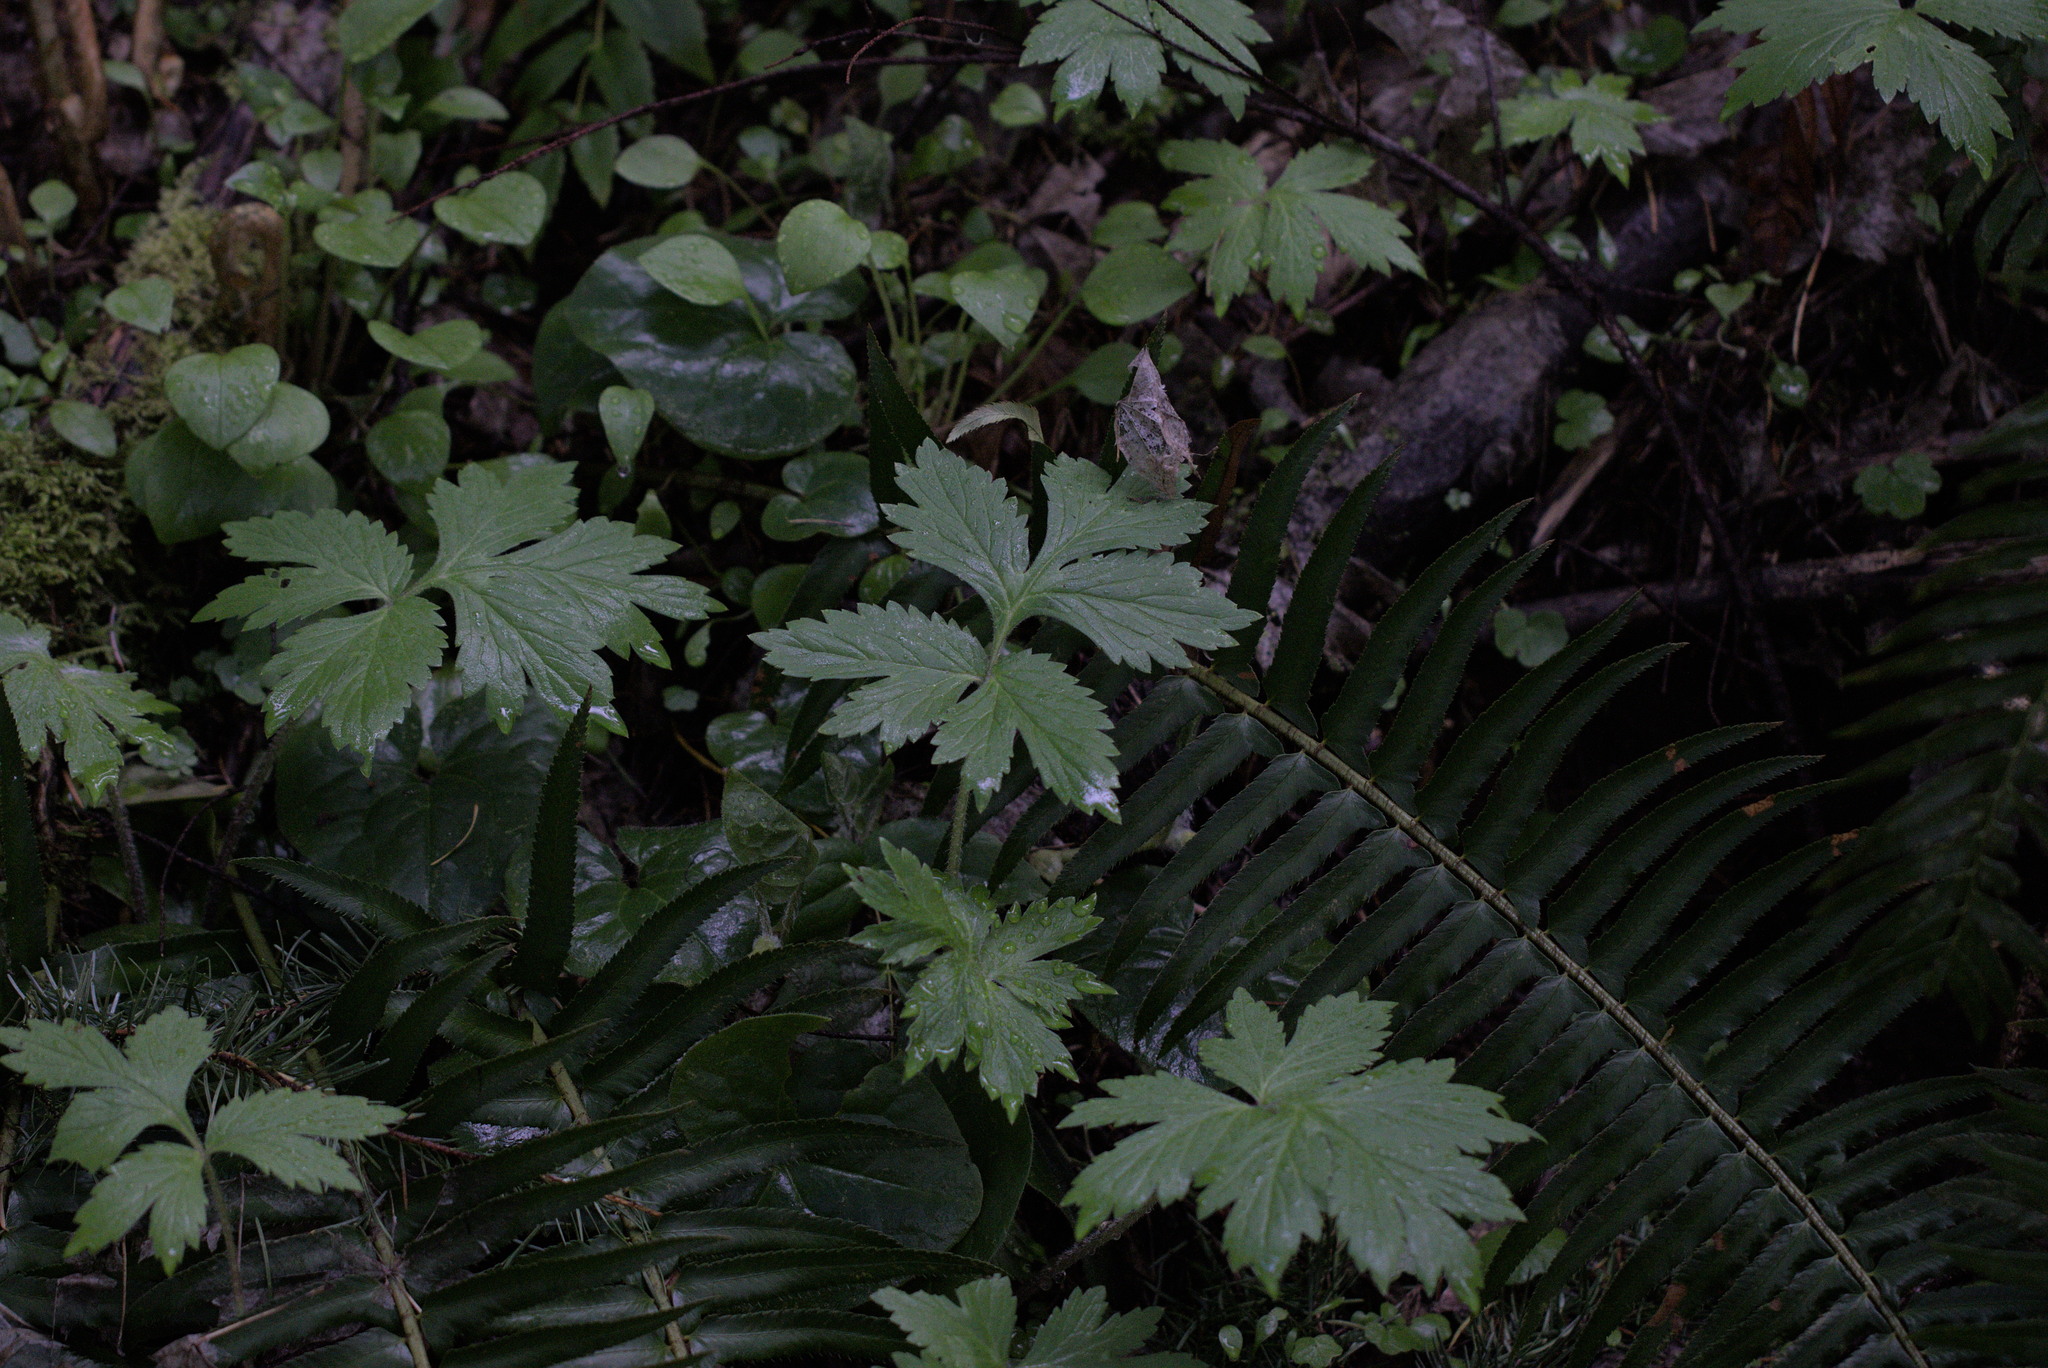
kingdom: Plantae
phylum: Tracheophyta
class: Magnoliopsida
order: Boraginales
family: Hydrophyllaceae
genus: Hydrophyllum
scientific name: Hydrophyllum tenuipes
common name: Pacific waterleaf
